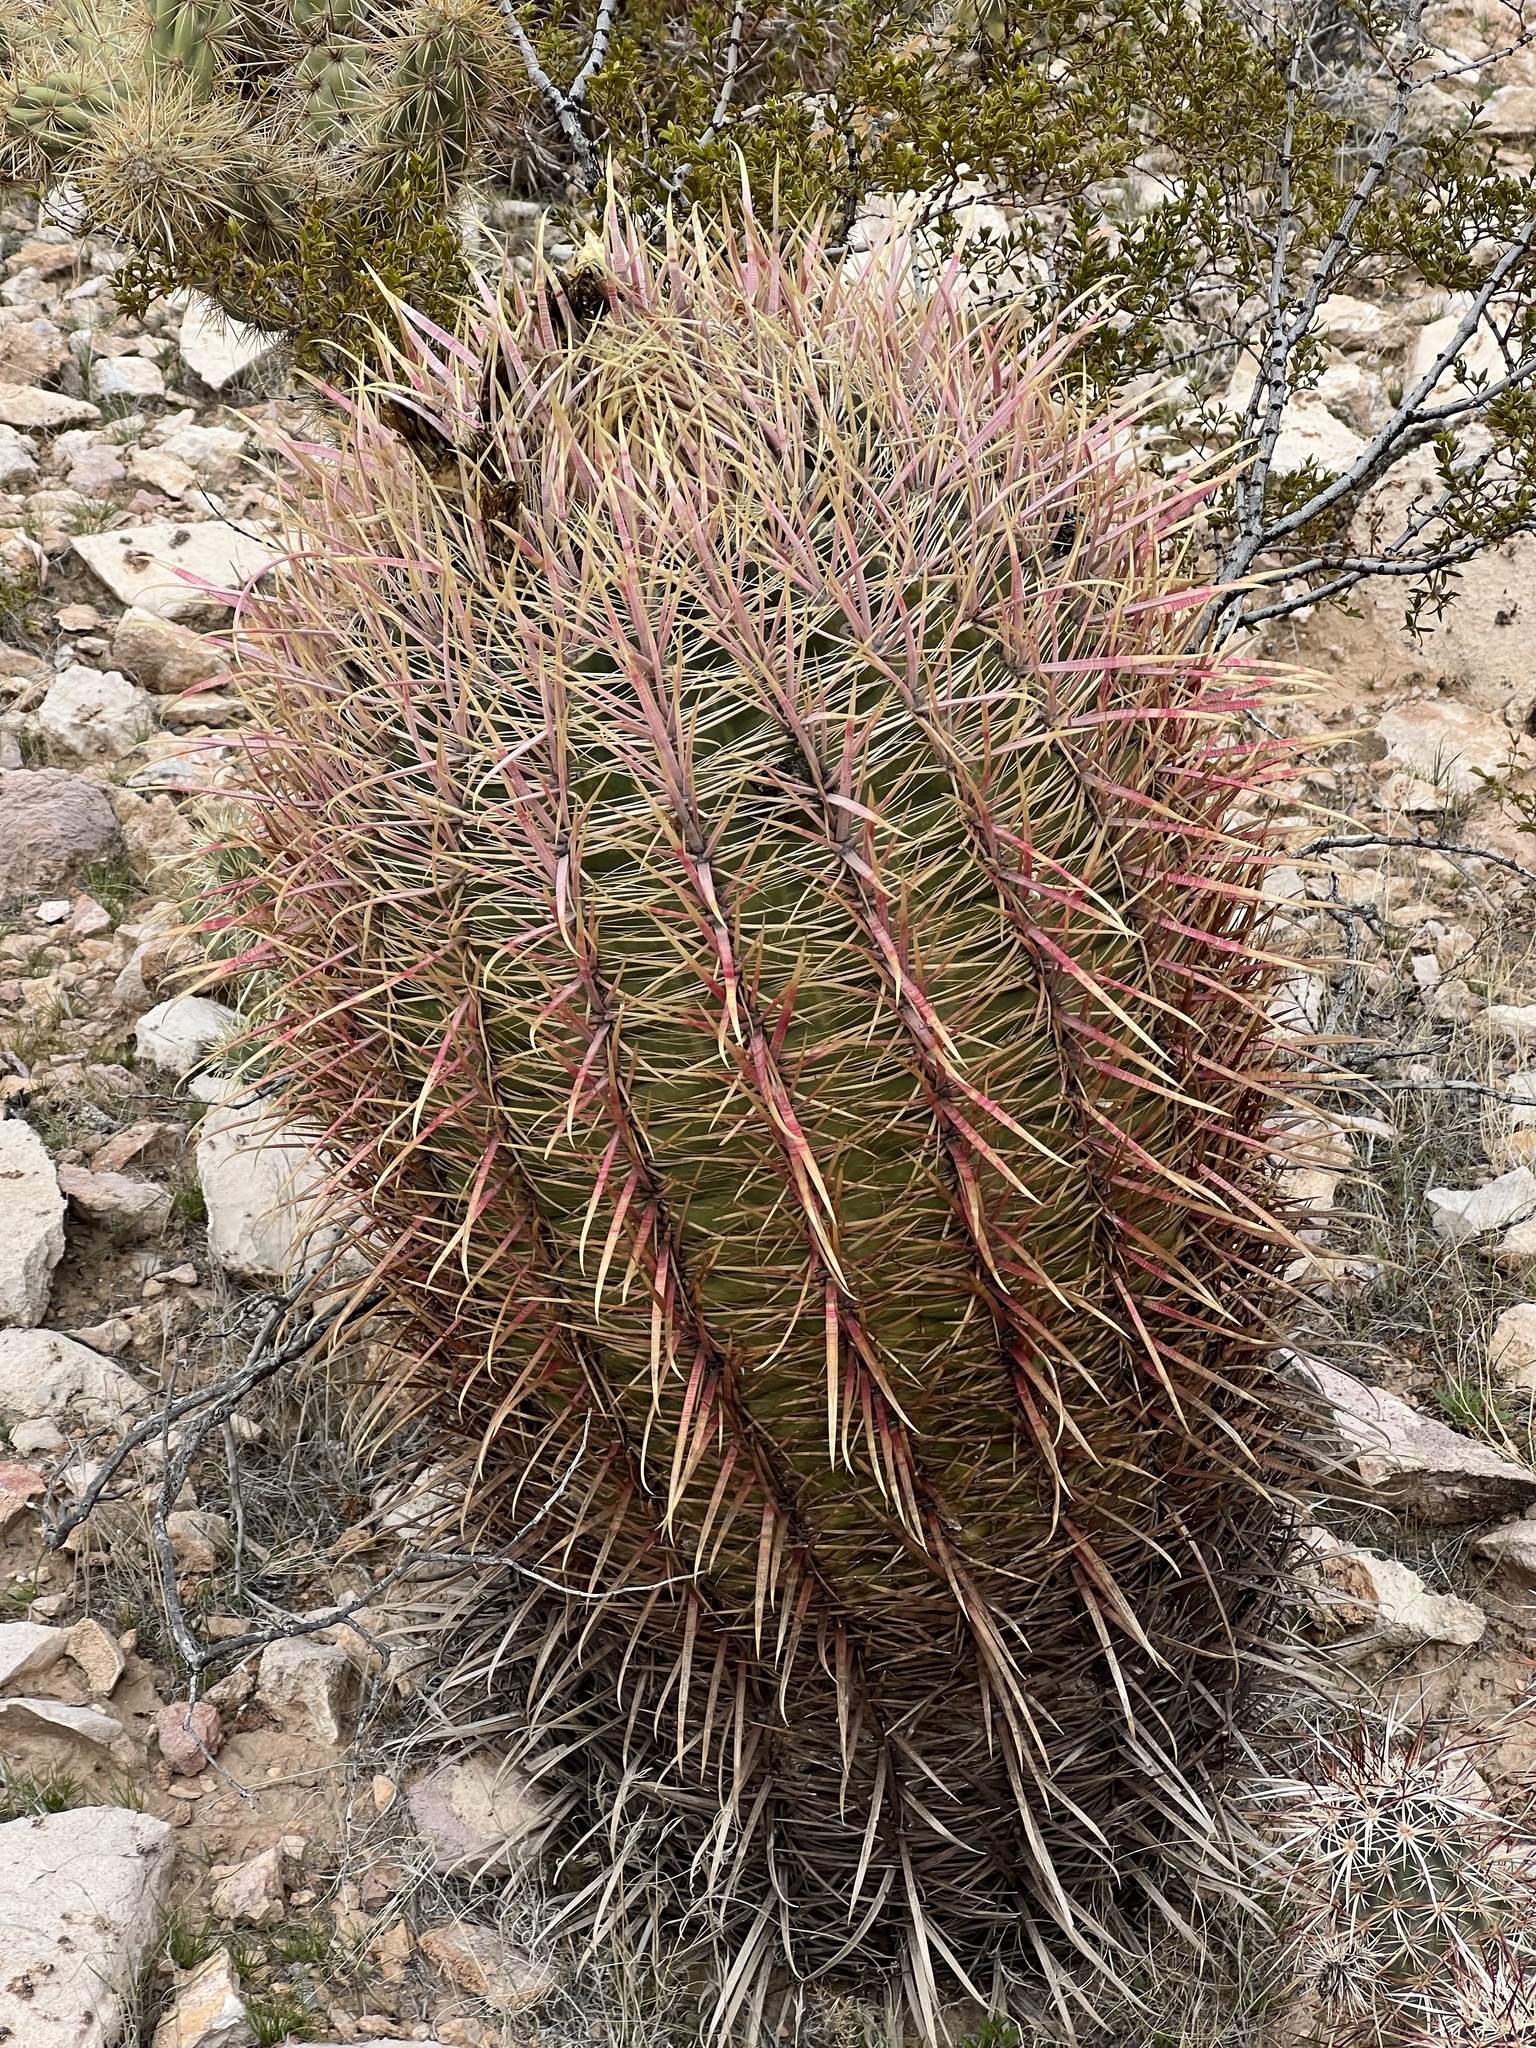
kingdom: Plantae
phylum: Tracheophyta
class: Magnoliopsida
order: Caryophyllales
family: Cactaceae
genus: Ferocactus
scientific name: Ferocactus cylindraceus
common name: California barrel cactus
